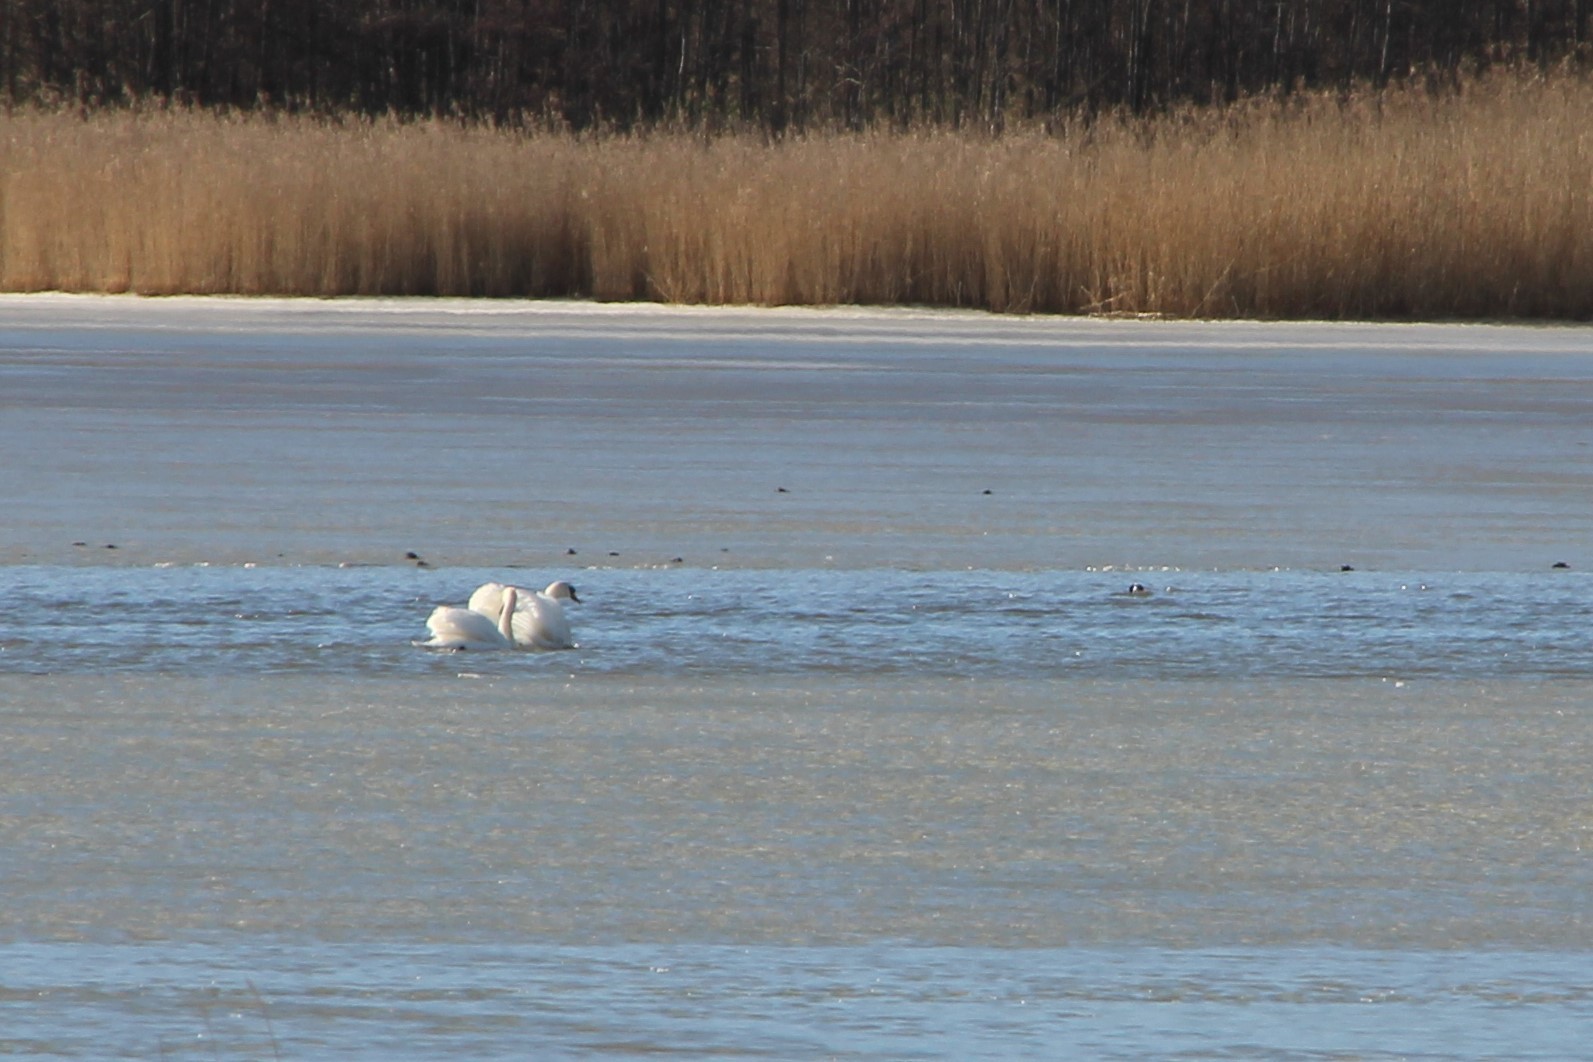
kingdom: Animalia
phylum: Chordata
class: Aves
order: Anseriformes
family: Anatidae
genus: Cygnus
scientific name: Cygnus olor
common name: Mute swan
